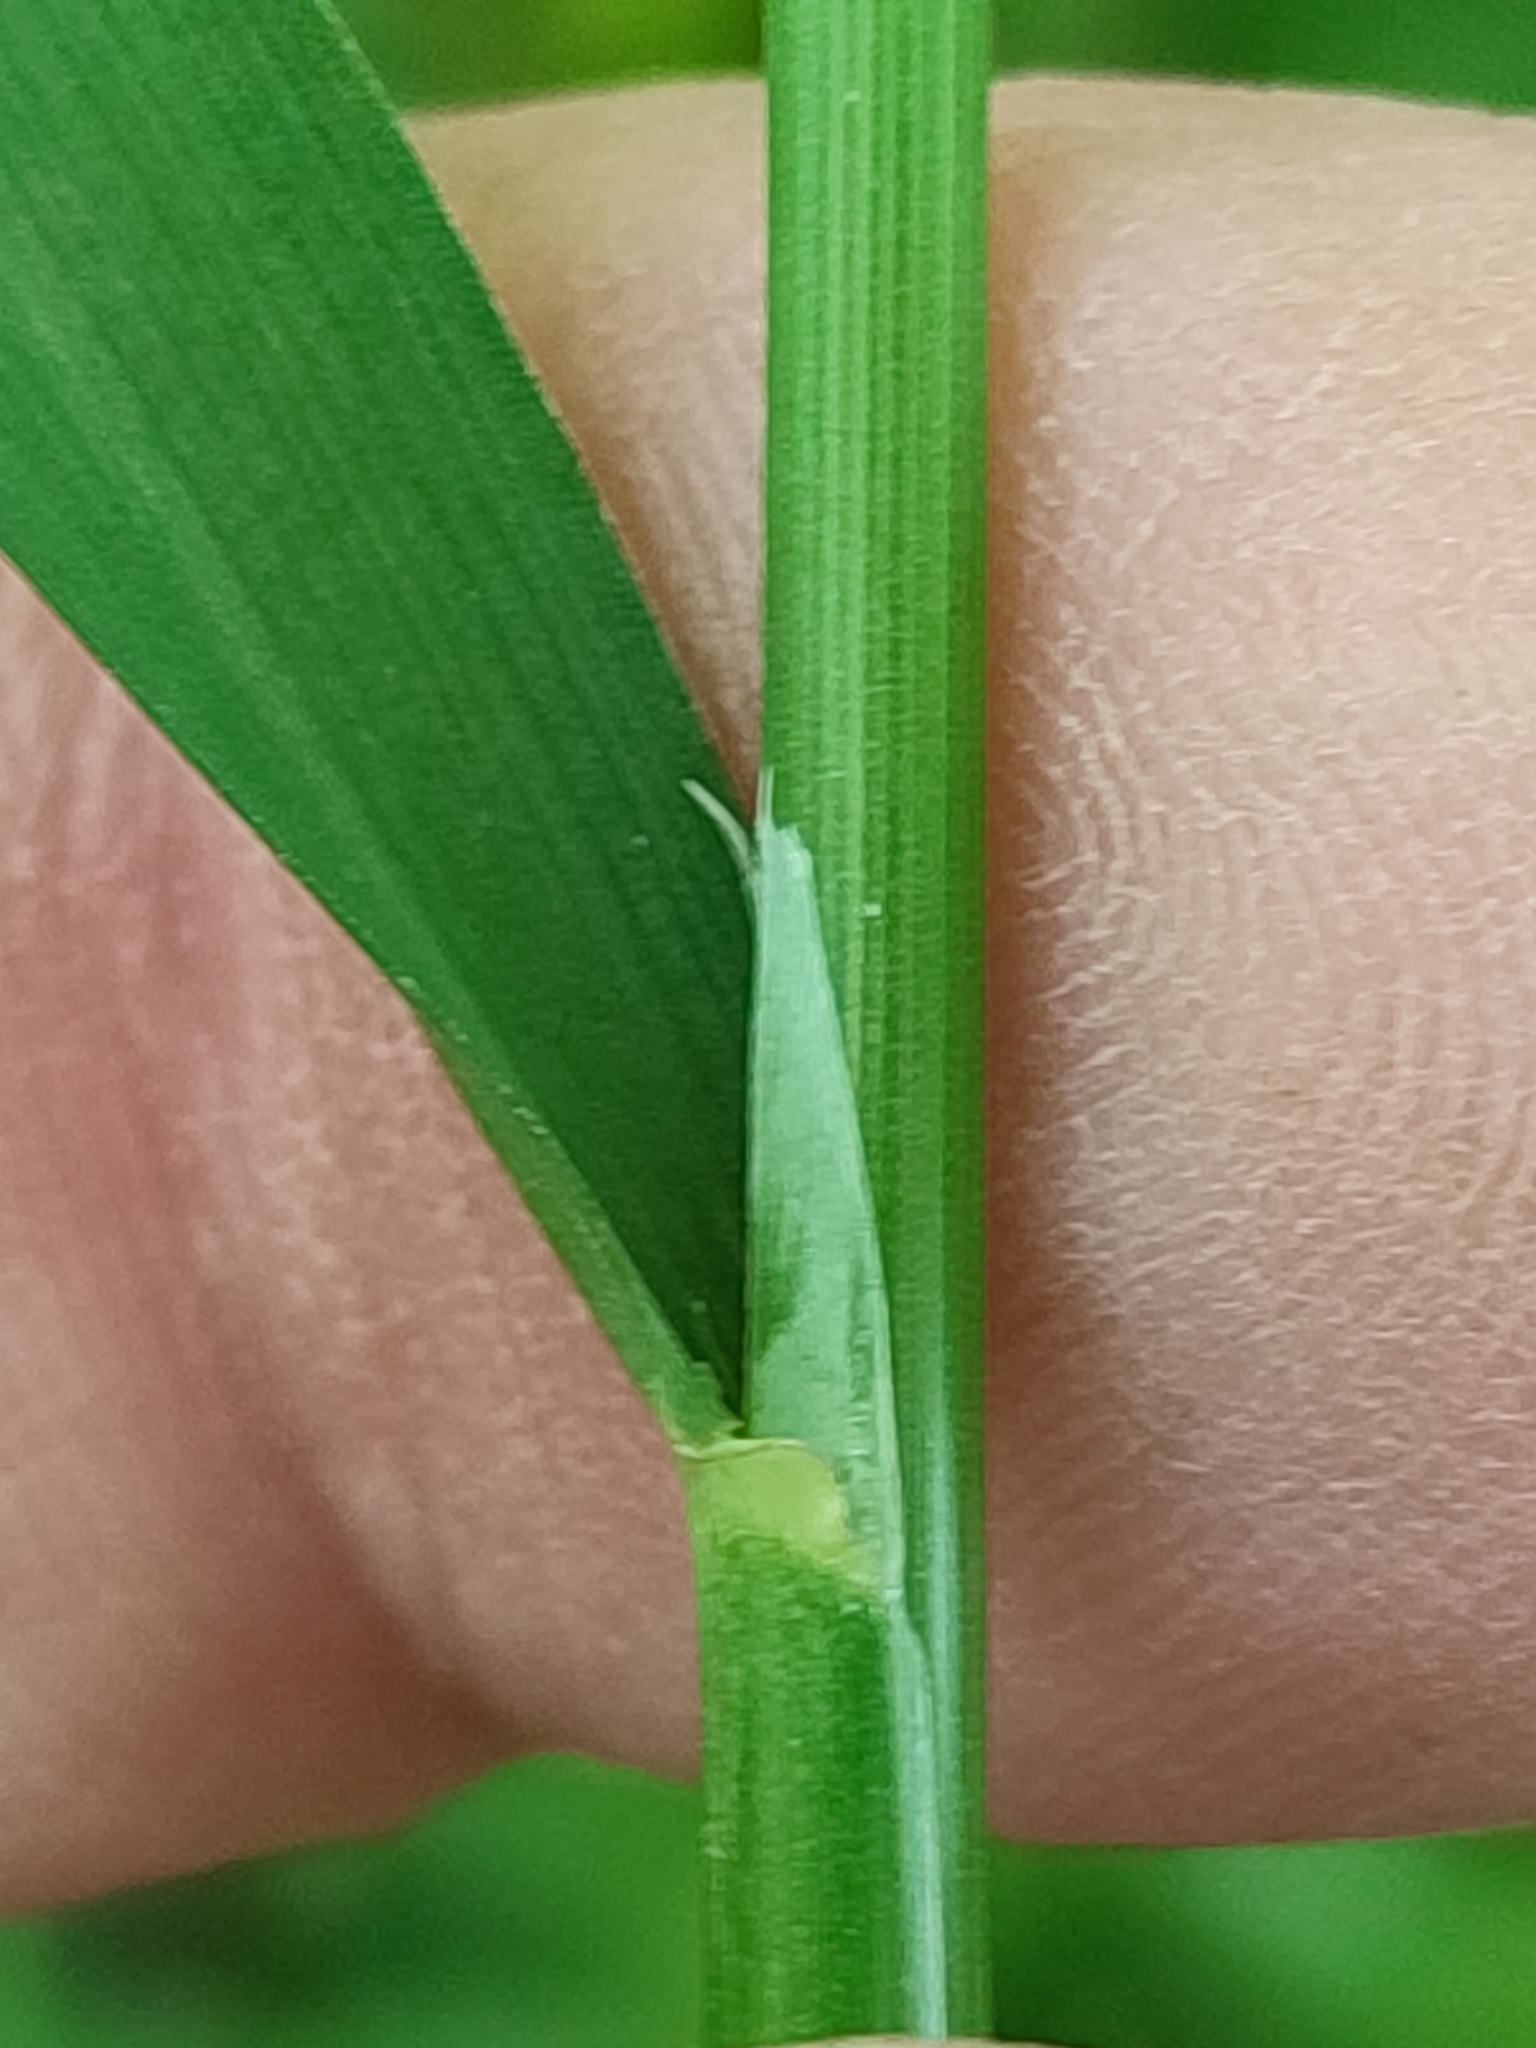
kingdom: Plantae
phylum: Tracheophyta
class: Liliopsida
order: Poales
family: Poaceae
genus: Milium
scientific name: Milium effusum
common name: Wood millet
